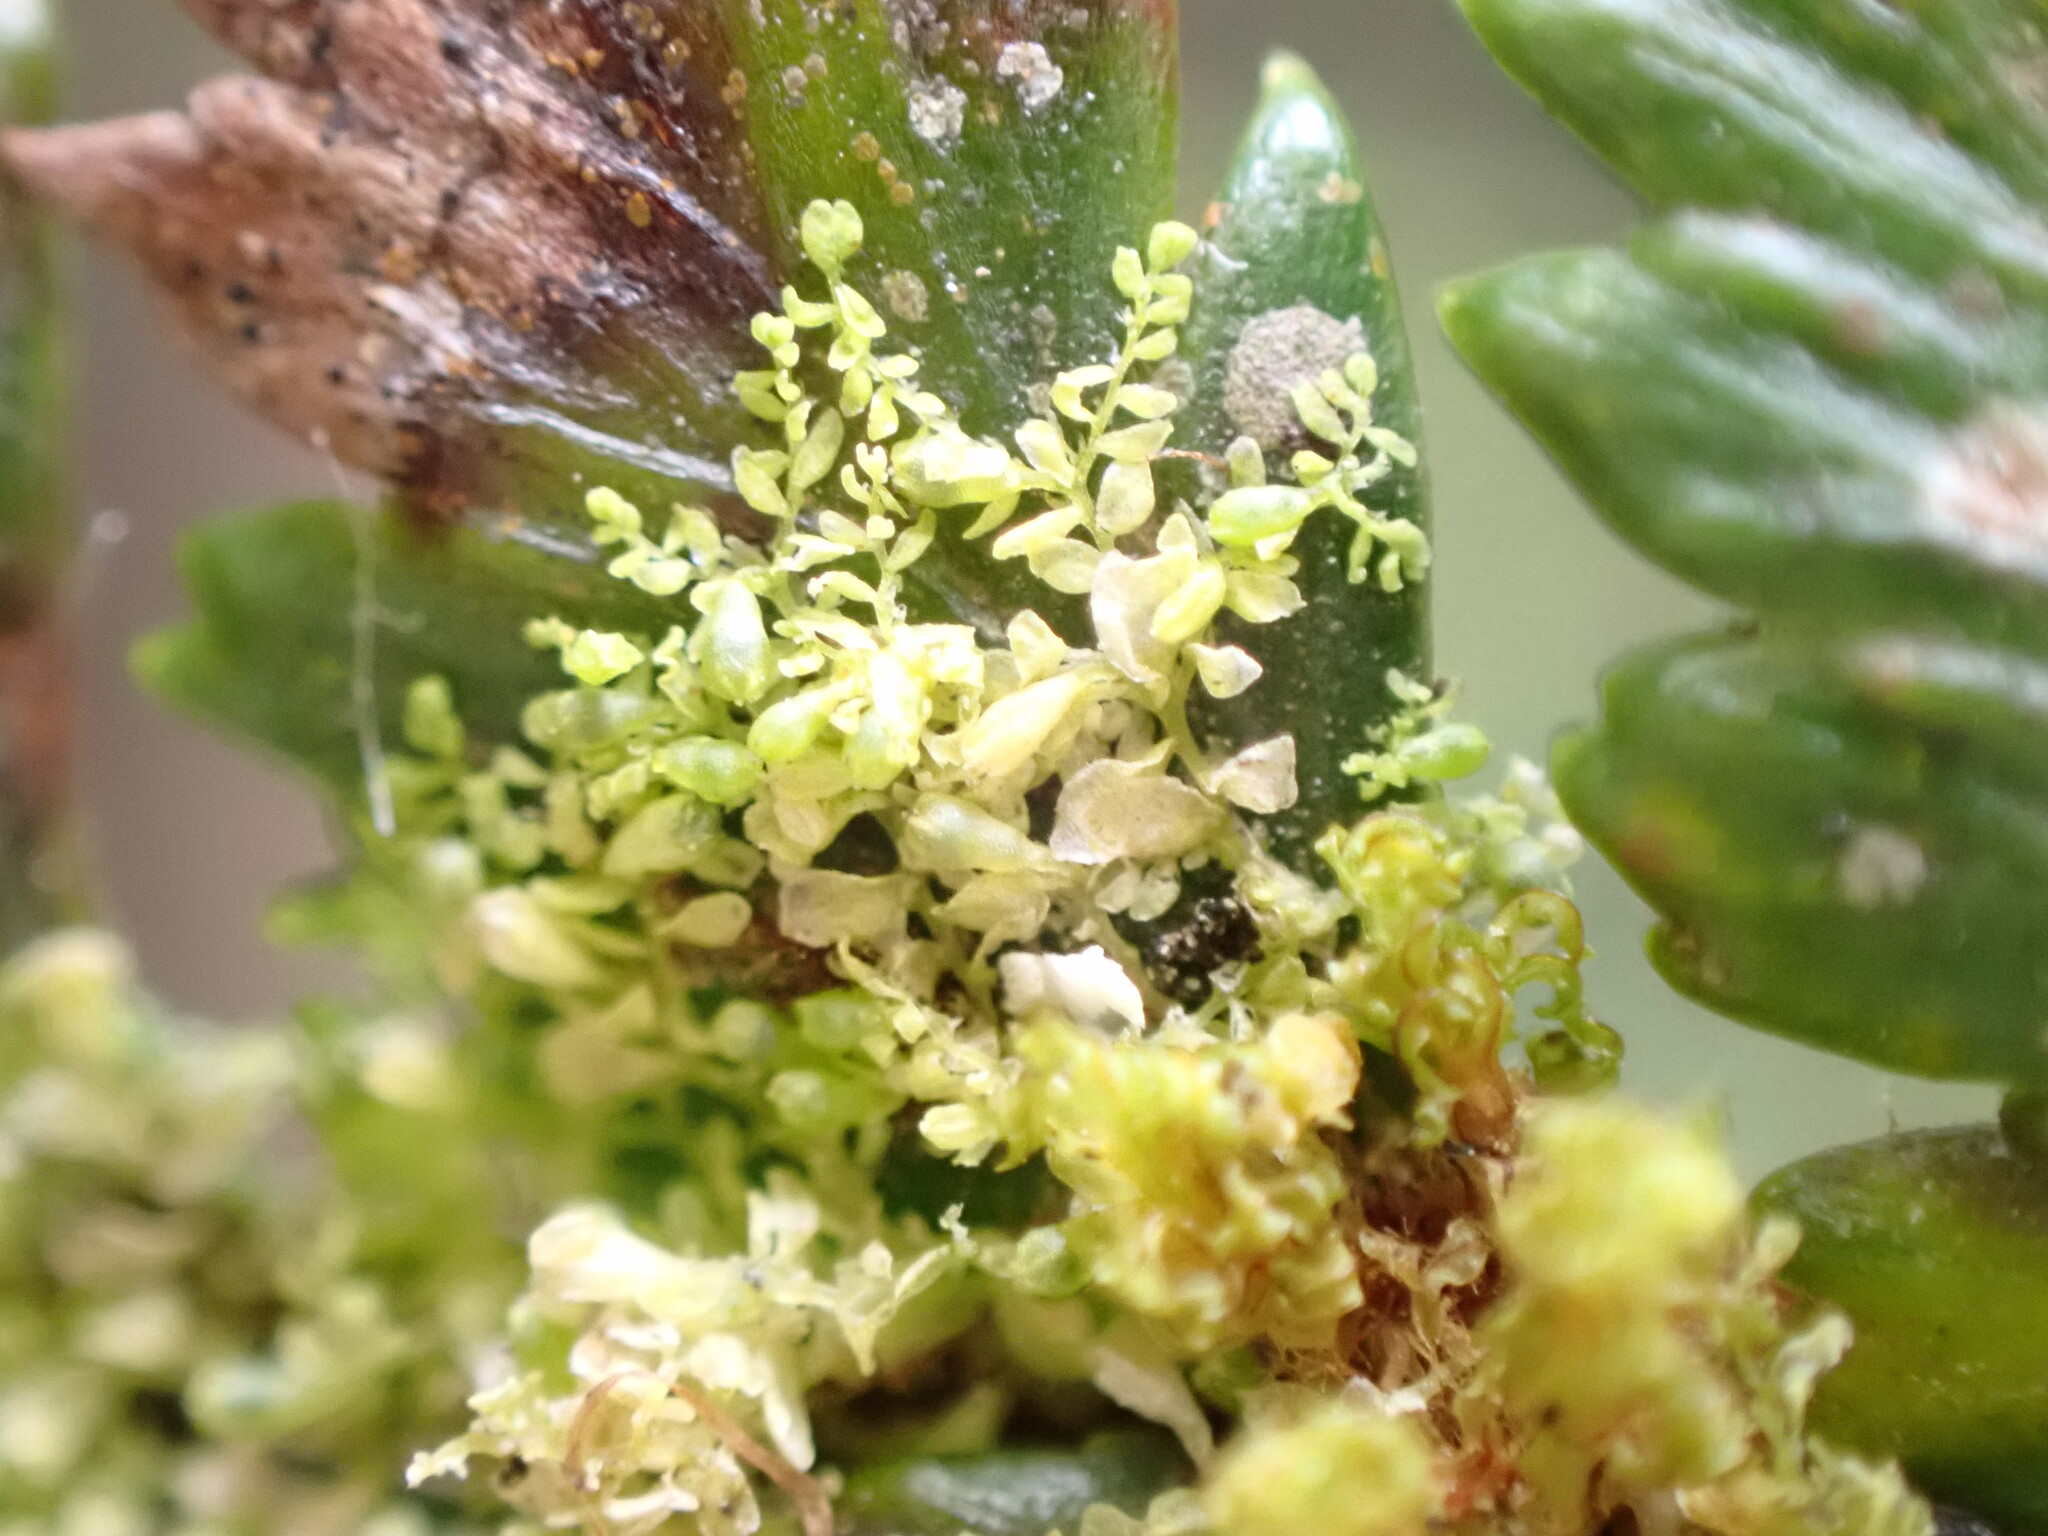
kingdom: Plantae
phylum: Marchantiophyta
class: Jungermanniopsida
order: Porellales
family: Lejeuneaceae
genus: Siphonolejeunea
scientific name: Siphonolejeunea nudipes
